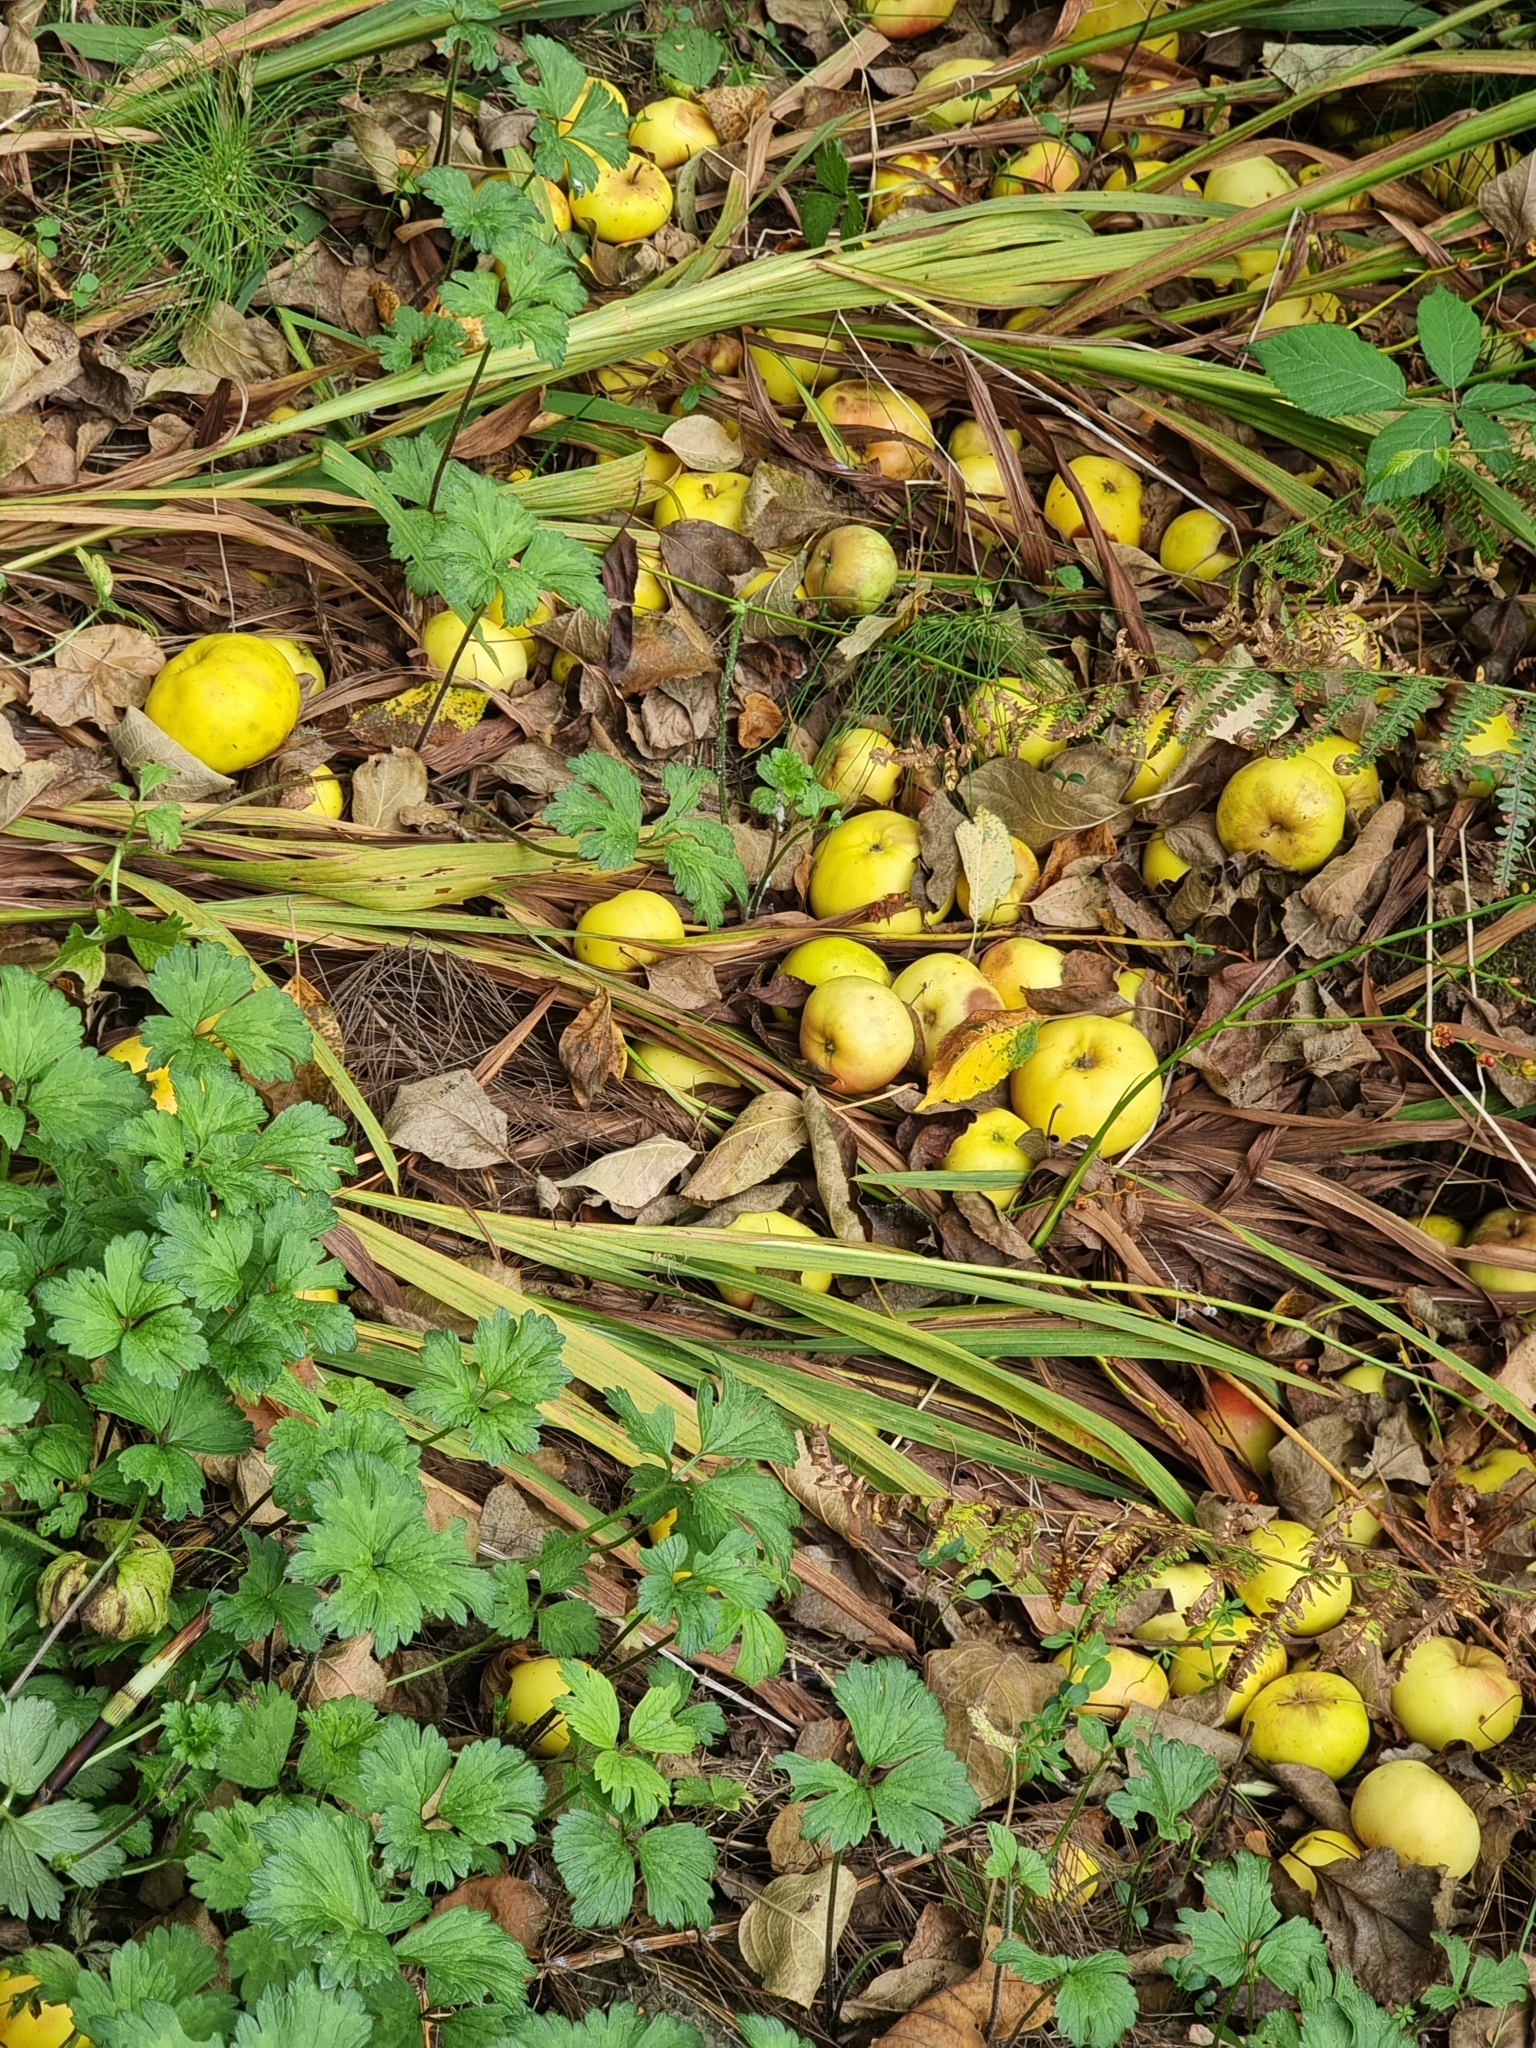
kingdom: Plantae
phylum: Tracheophyta
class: Magnoliopsida
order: Rosales
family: Rosaceae
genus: Malus
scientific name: Malus domestica
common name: Apple
